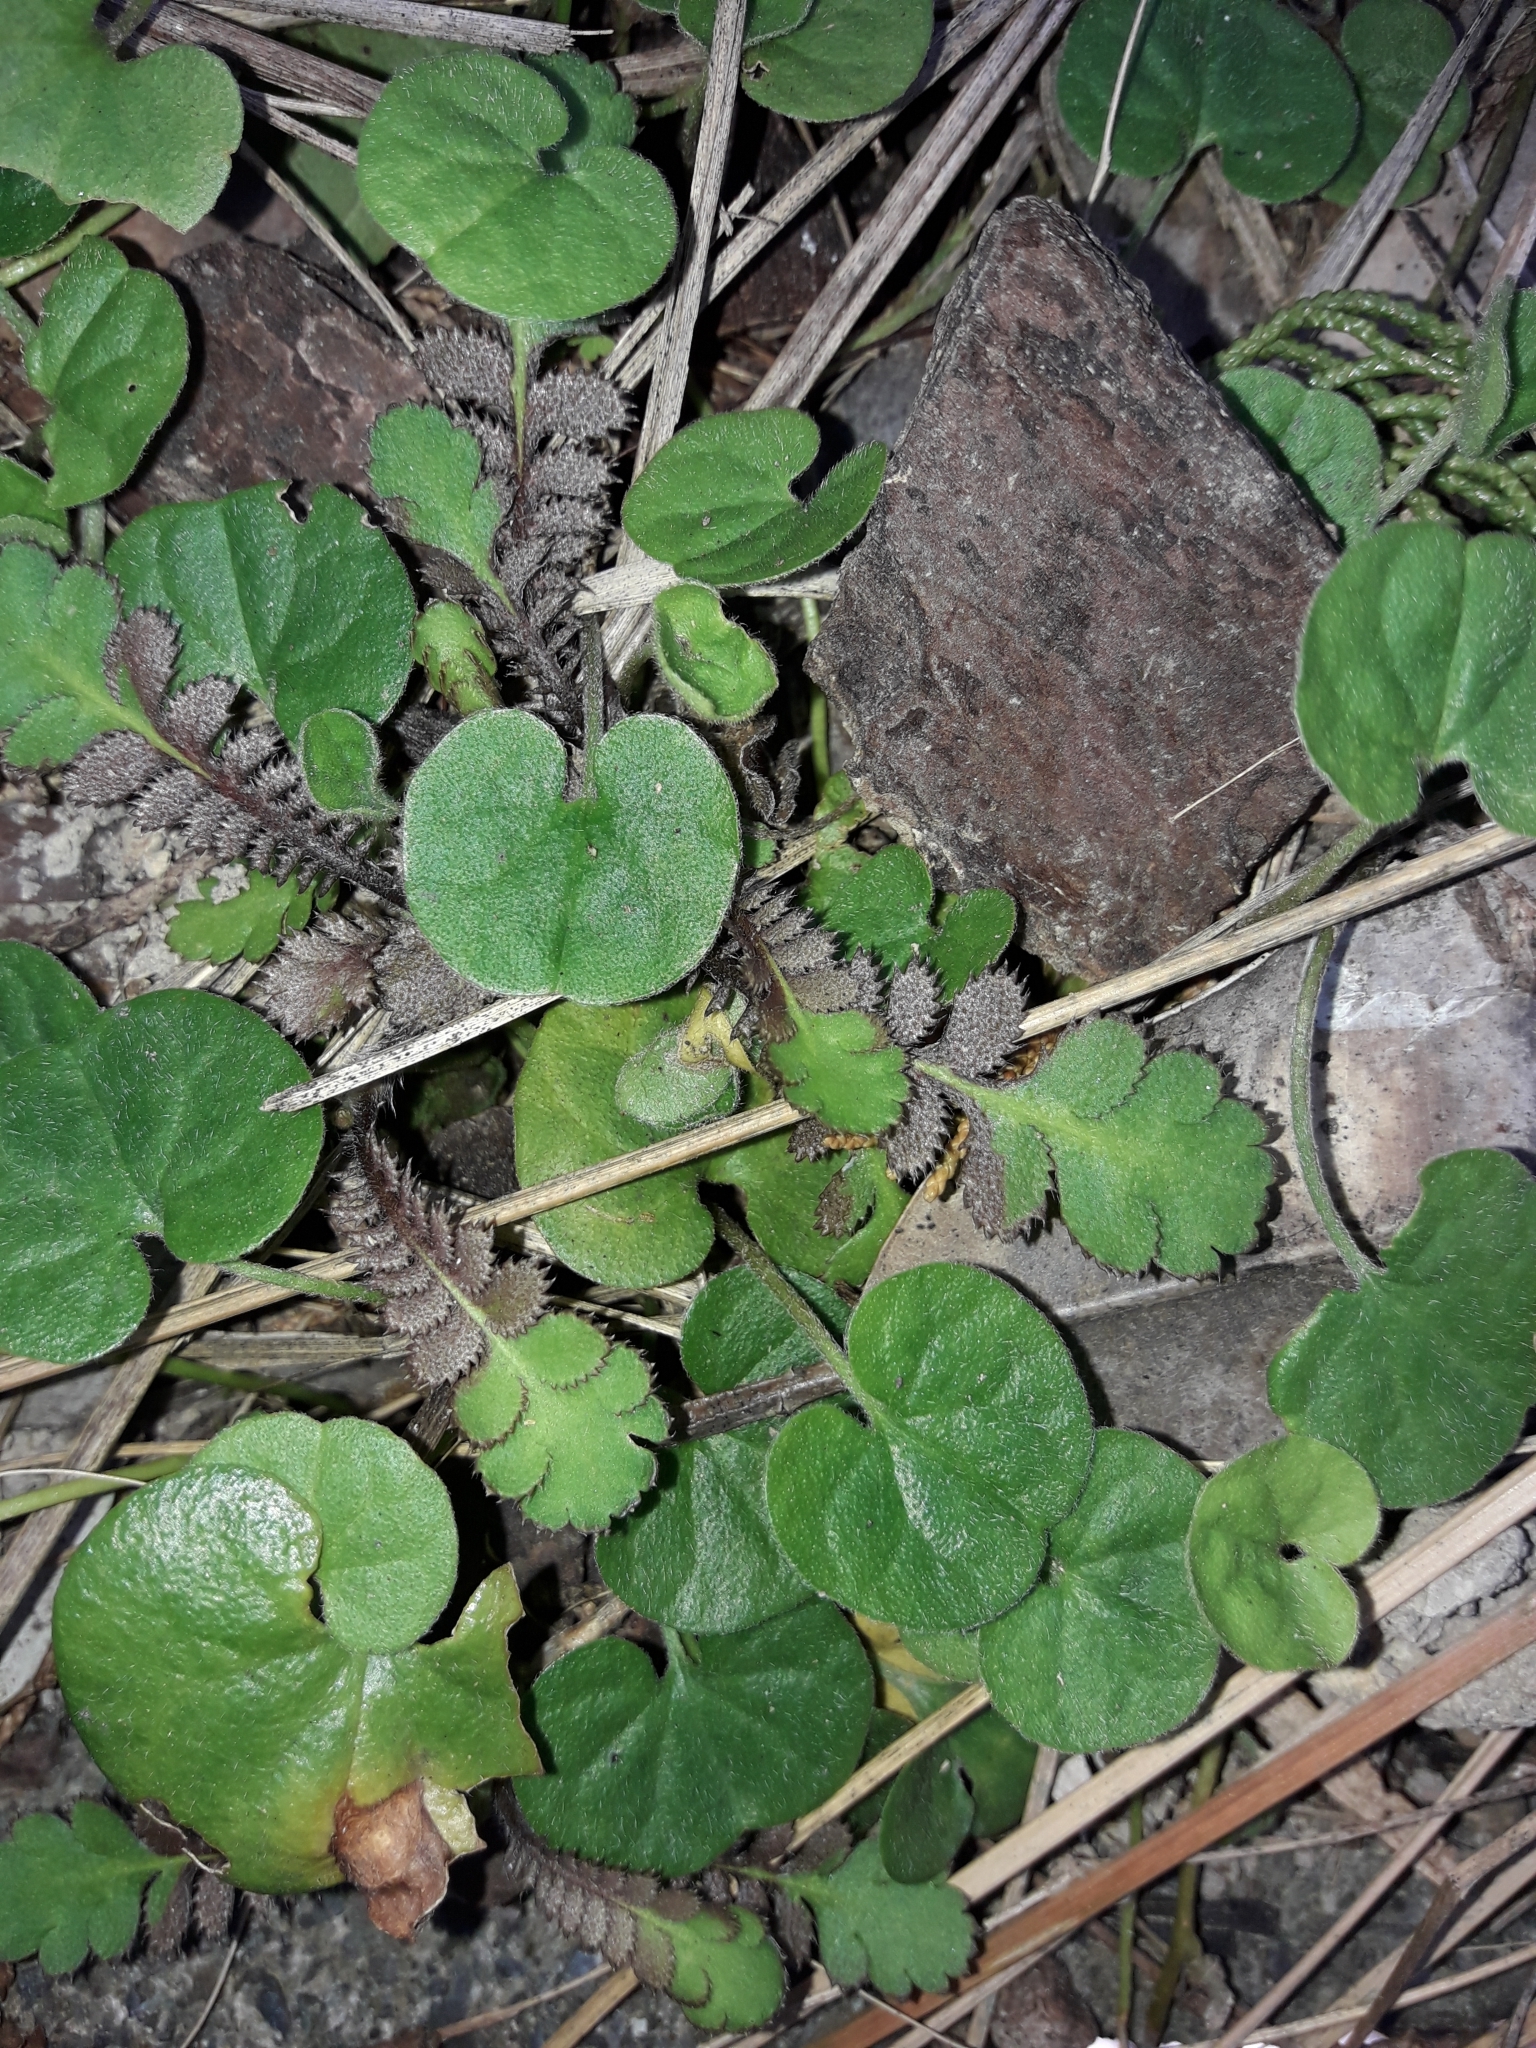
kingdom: Plantae
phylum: Tracheophyta
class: Magnoliopsida
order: Solanales
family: Convolvulaceae
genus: Dichondra
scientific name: Dichondra repens
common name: Kidneyweed
